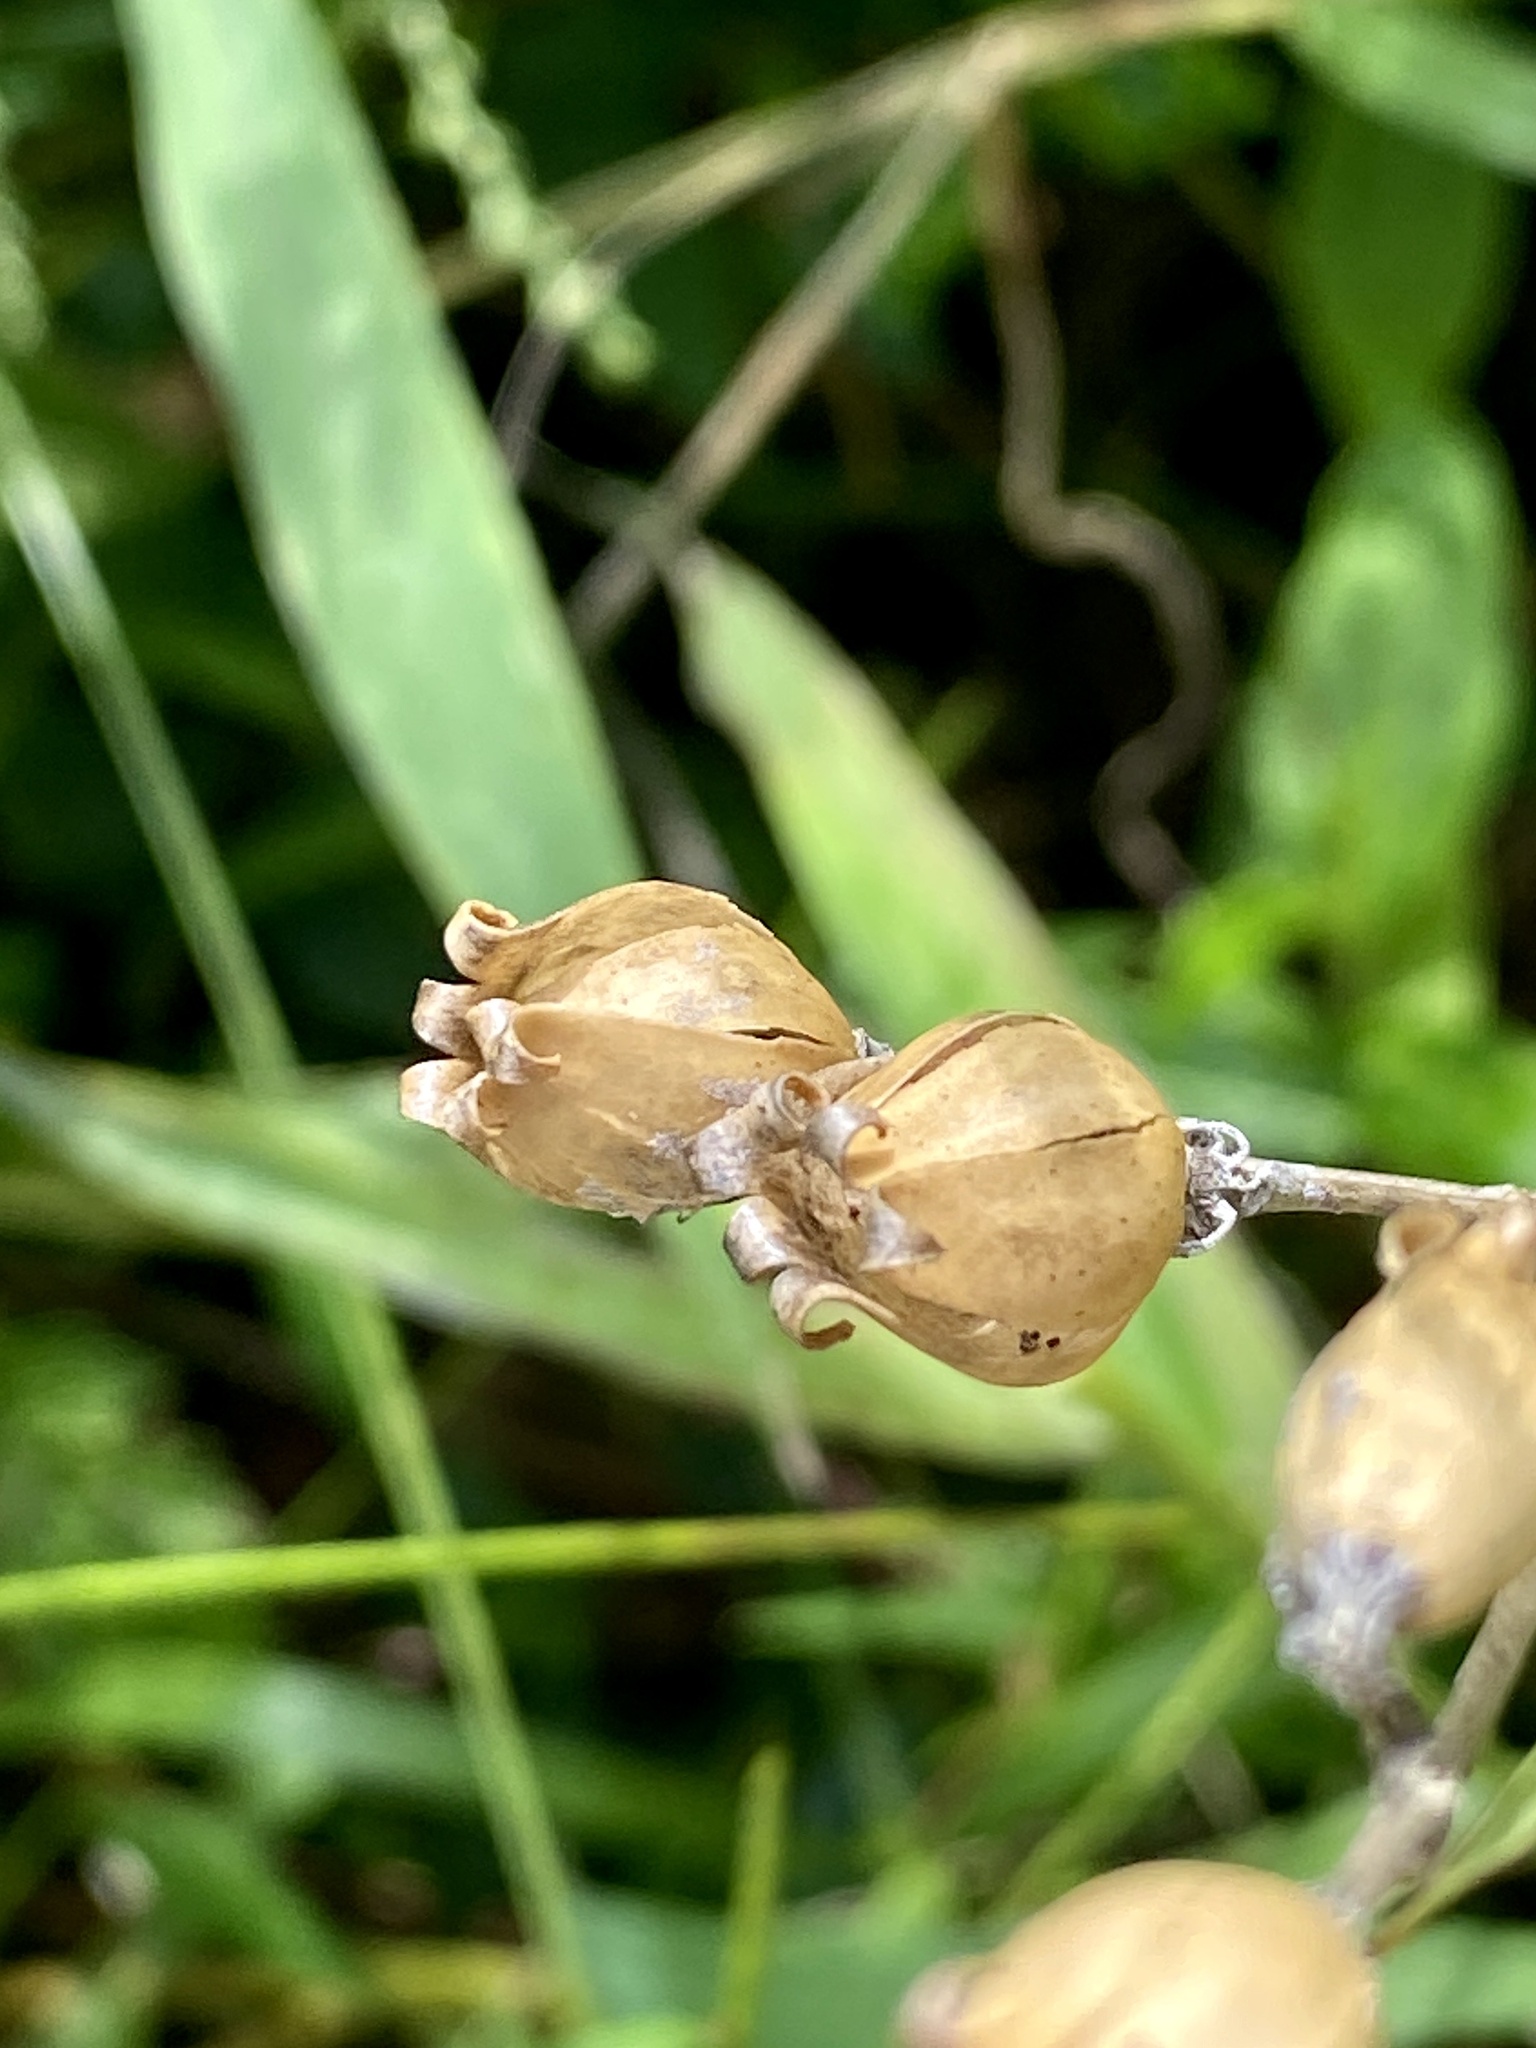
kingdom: Plantae
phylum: Tracheophyta
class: Magnoliopsida
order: Caryophyllales
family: Caryophyllaceae
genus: Silene
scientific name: Silene latifolia
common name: White campion
